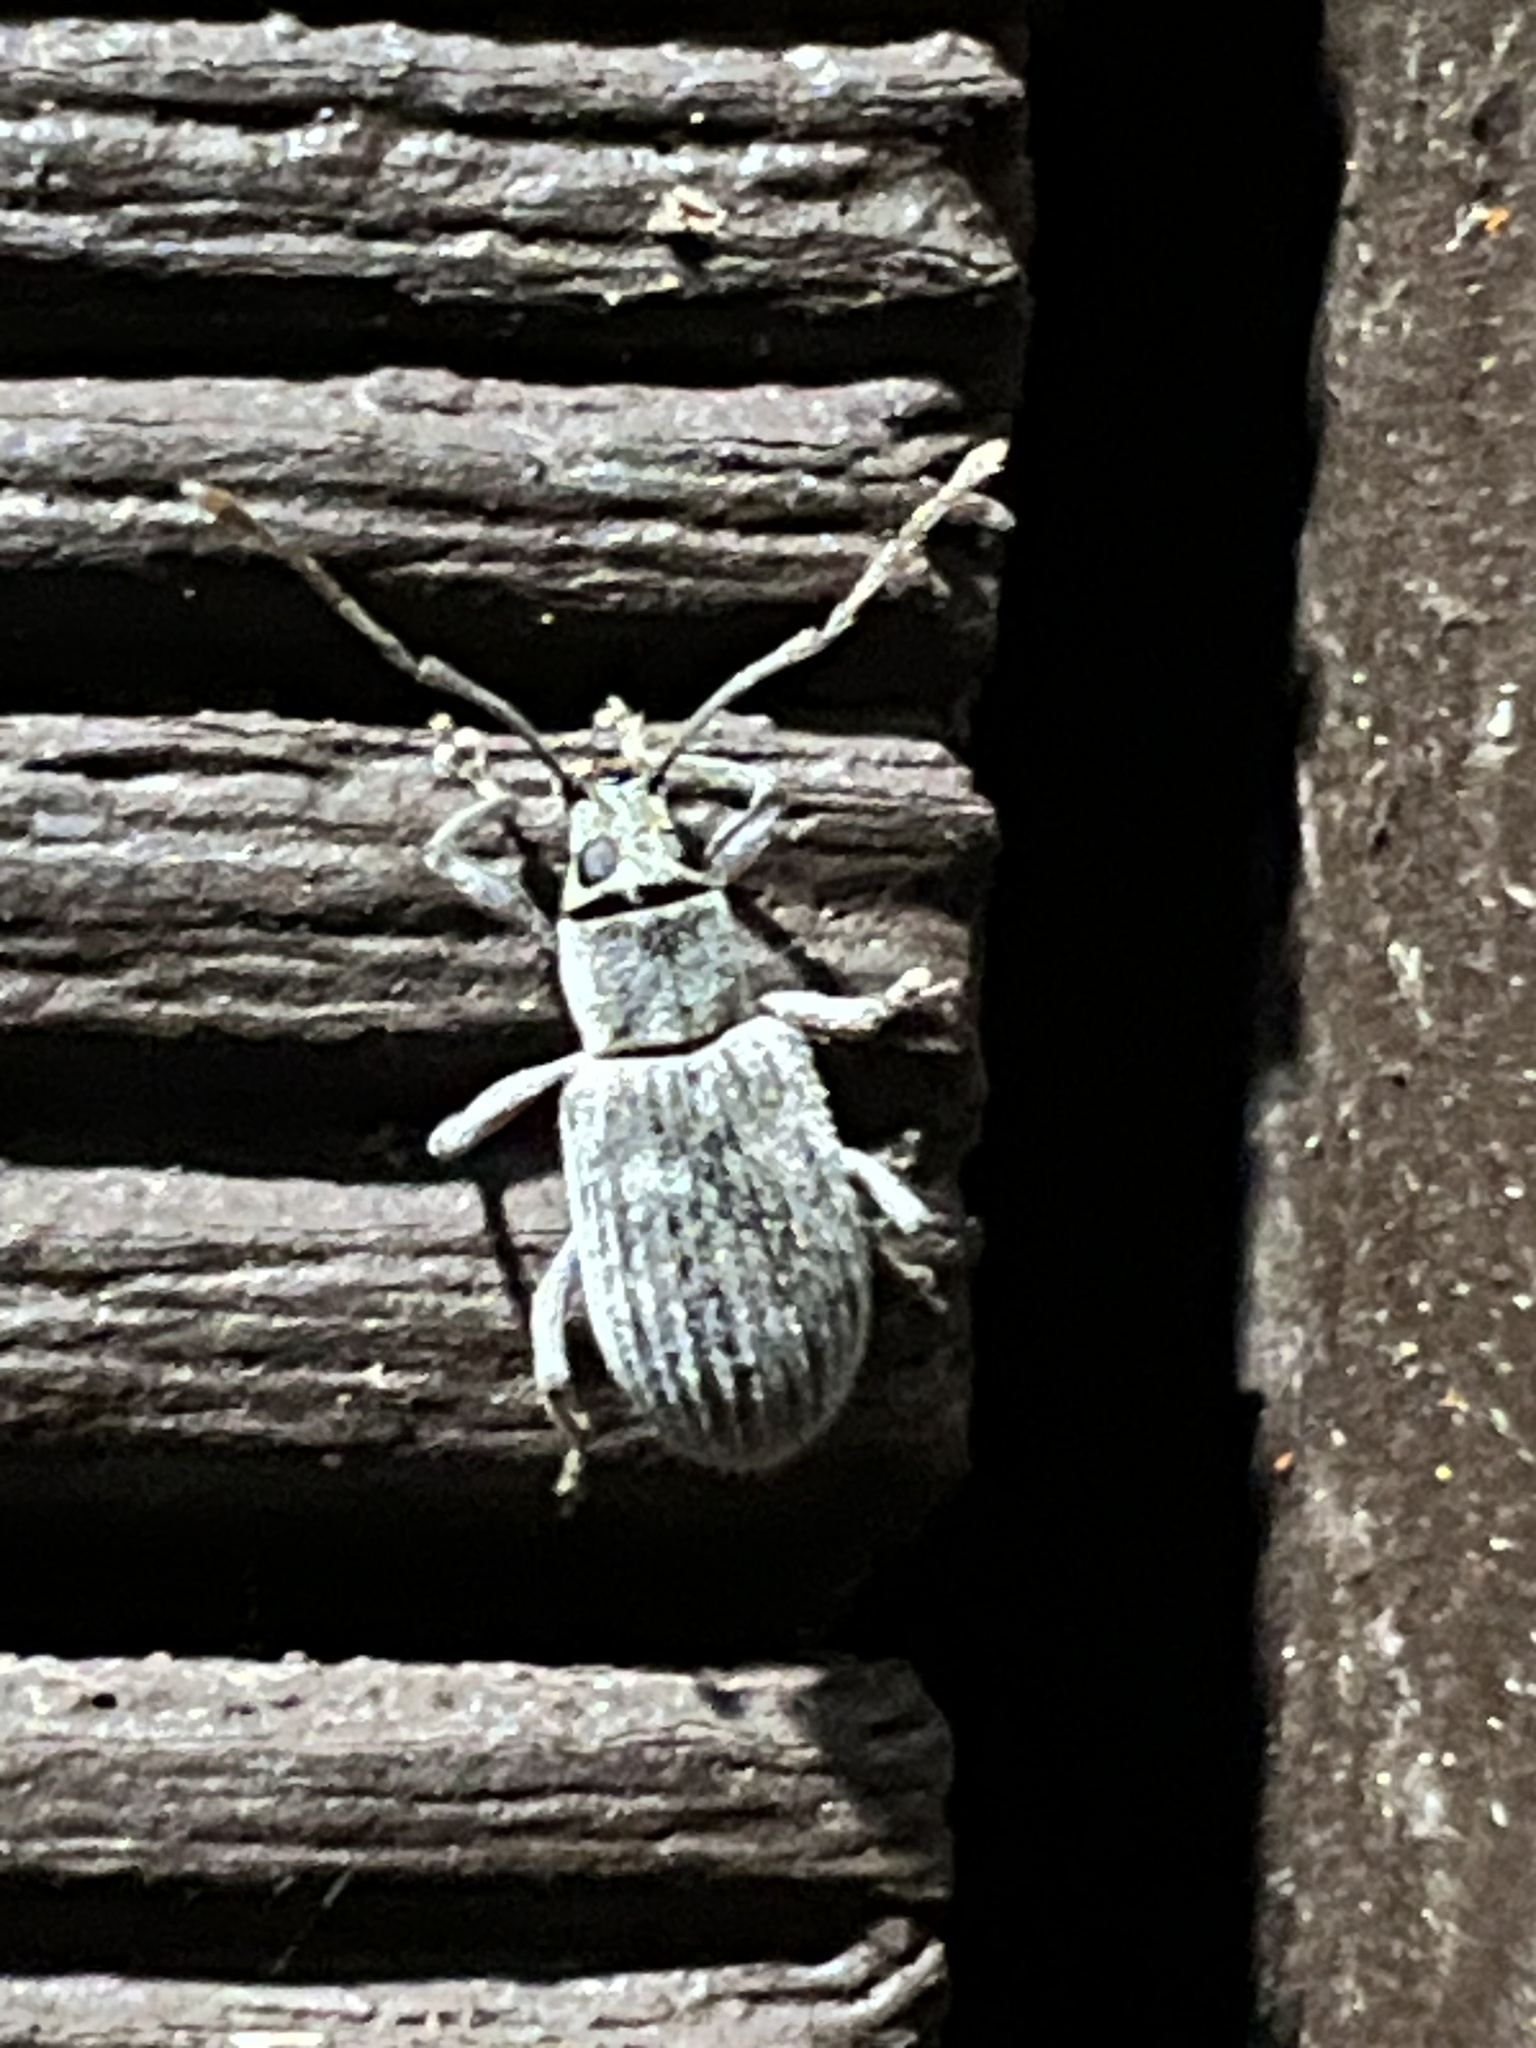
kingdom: Animalia
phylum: Arthropoda
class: Insecta
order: Coleoptera
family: Curculionidae
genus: Cyrtepistomus
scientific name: Cyrtepistomus castaneus
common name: Weevil
